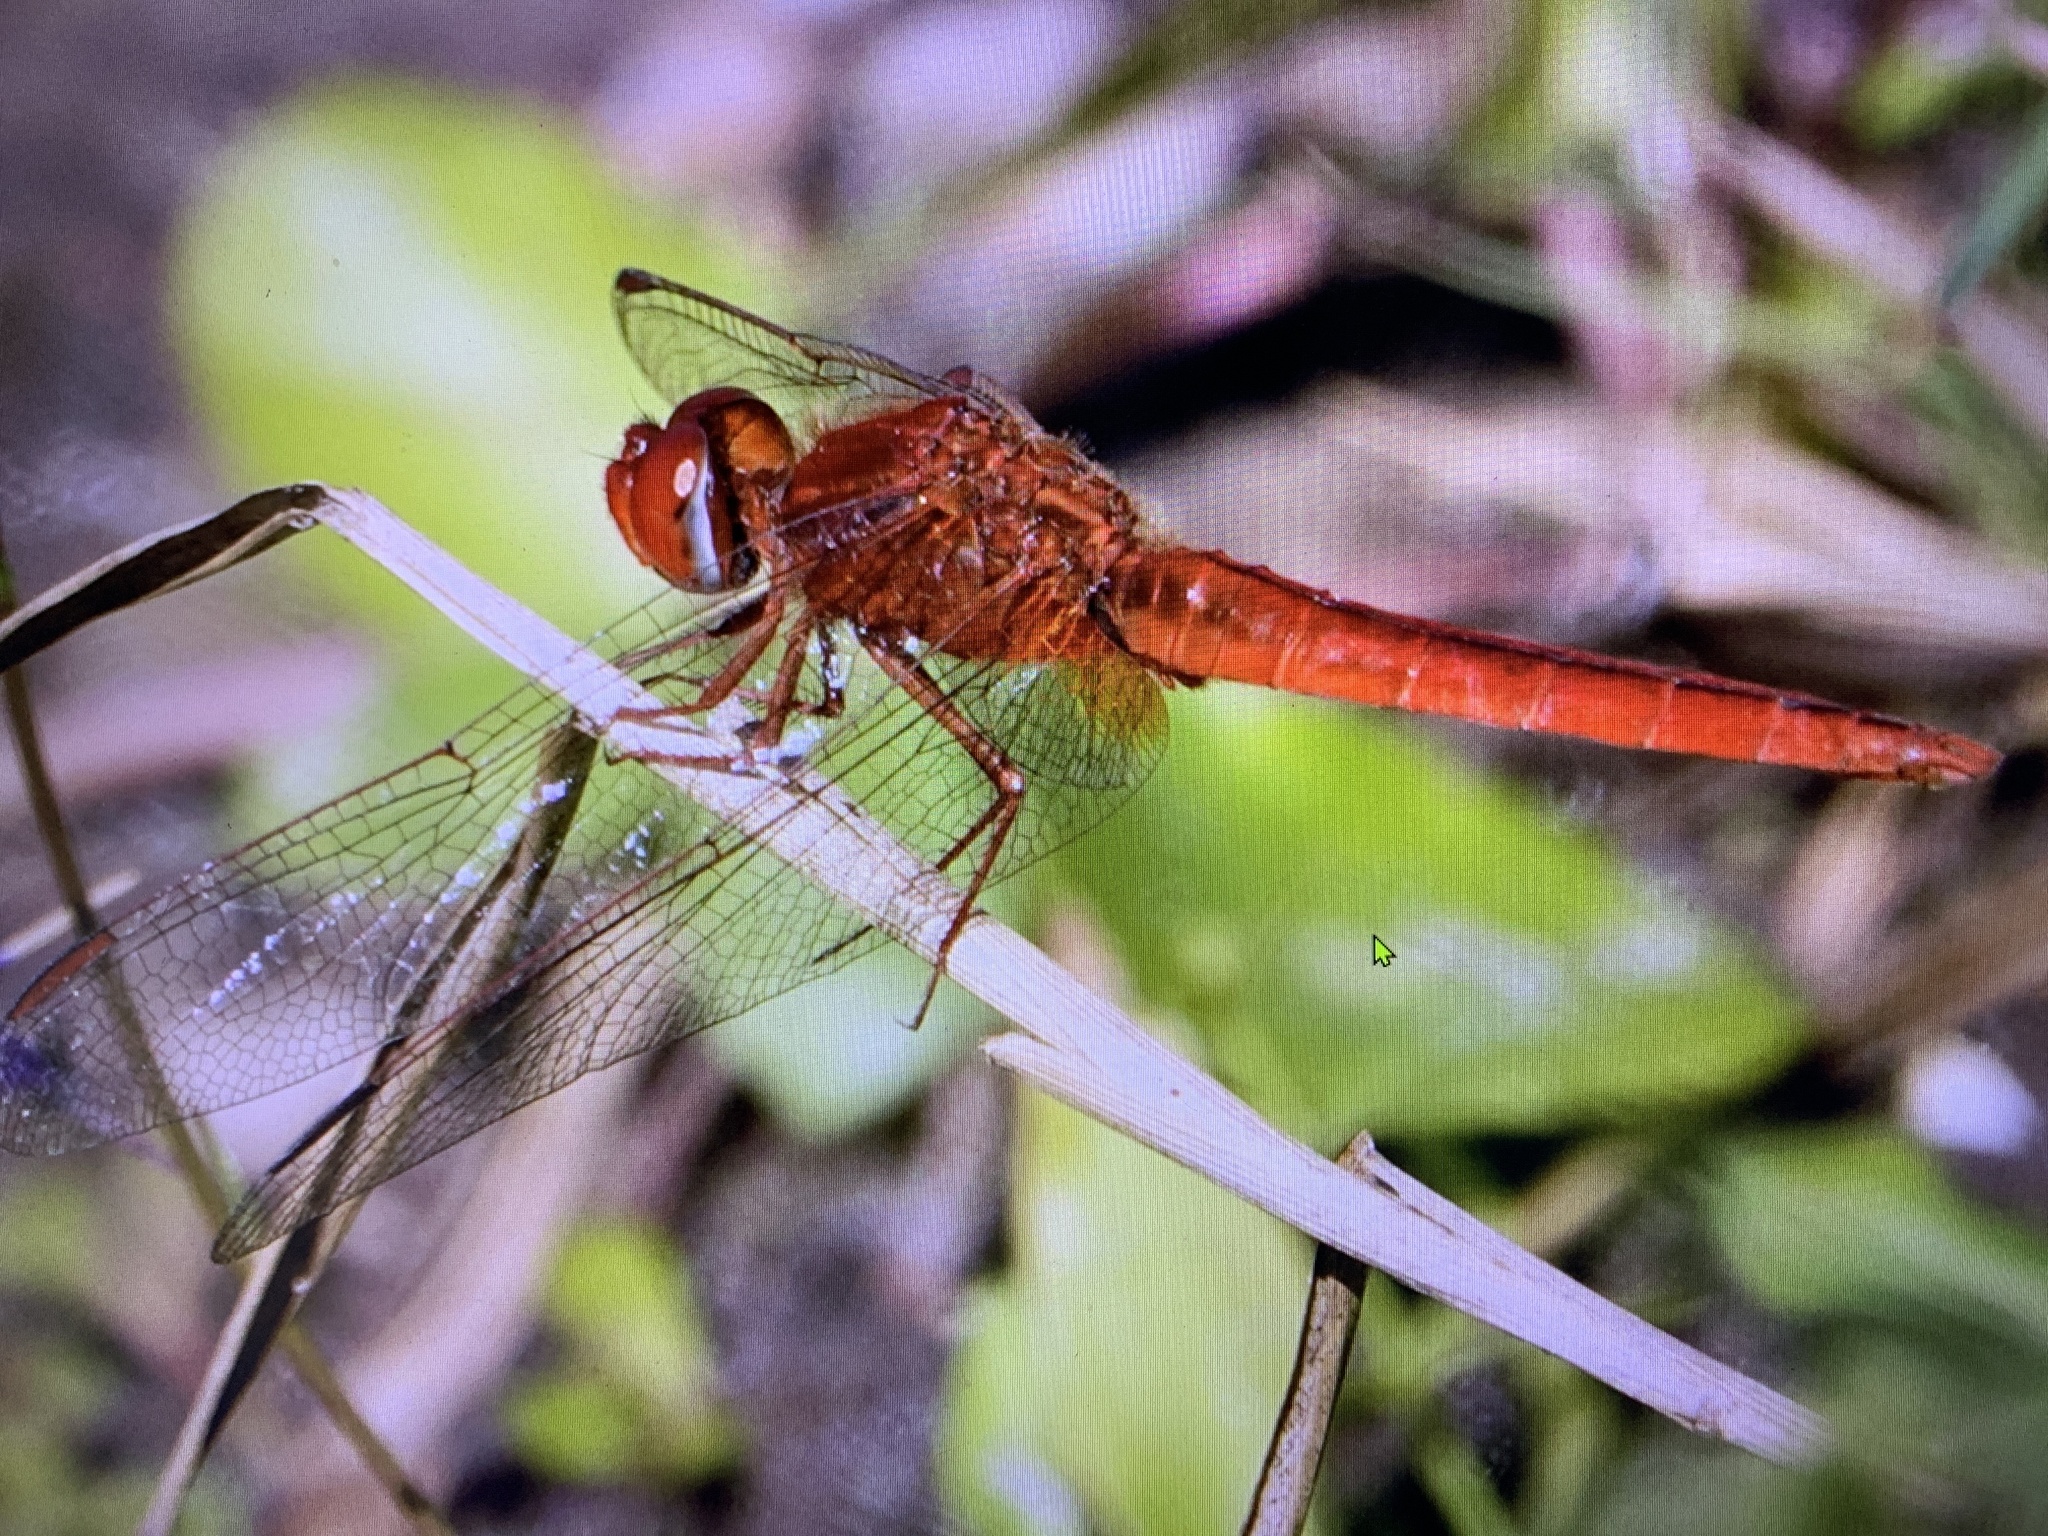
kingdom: Animalia
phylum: Arthropoda
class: Insecta
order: Odonata
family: Libellulidae
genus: Crocothemis
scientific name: Crocothemis servilia
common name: Scarlet skimmer
